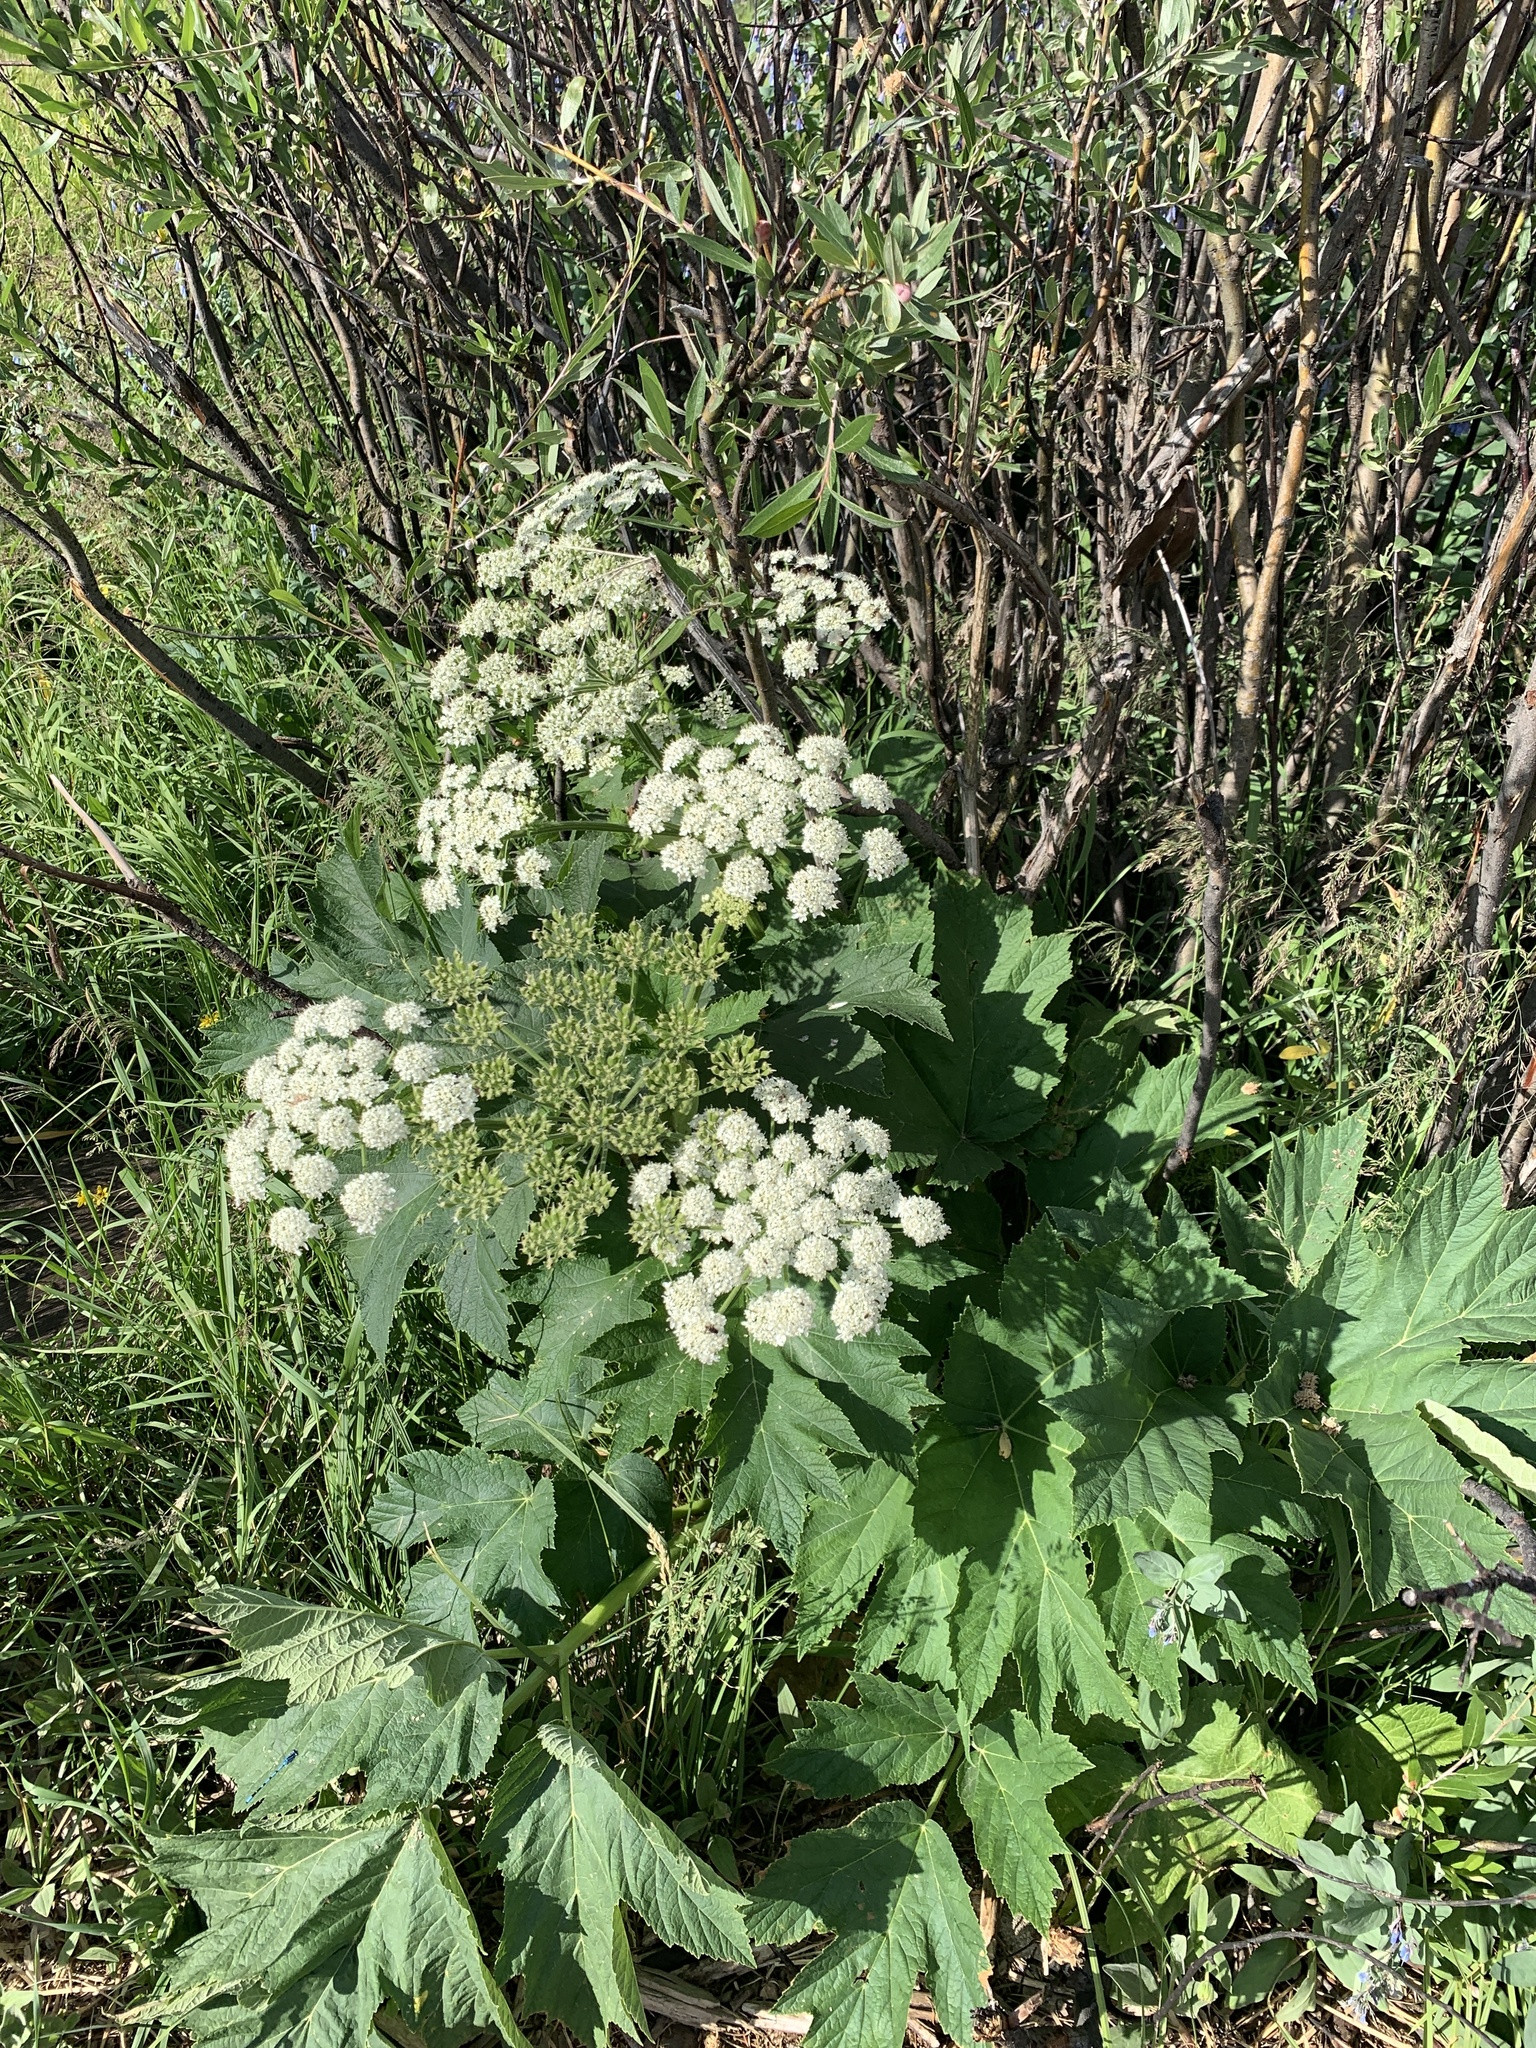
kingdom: Plantae
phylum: Tracheophyta
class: Magnoliopsida
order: Apiales
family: Apiaceae
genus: Heracleum
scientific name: Heracleum maximum
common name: American cow parsnip
